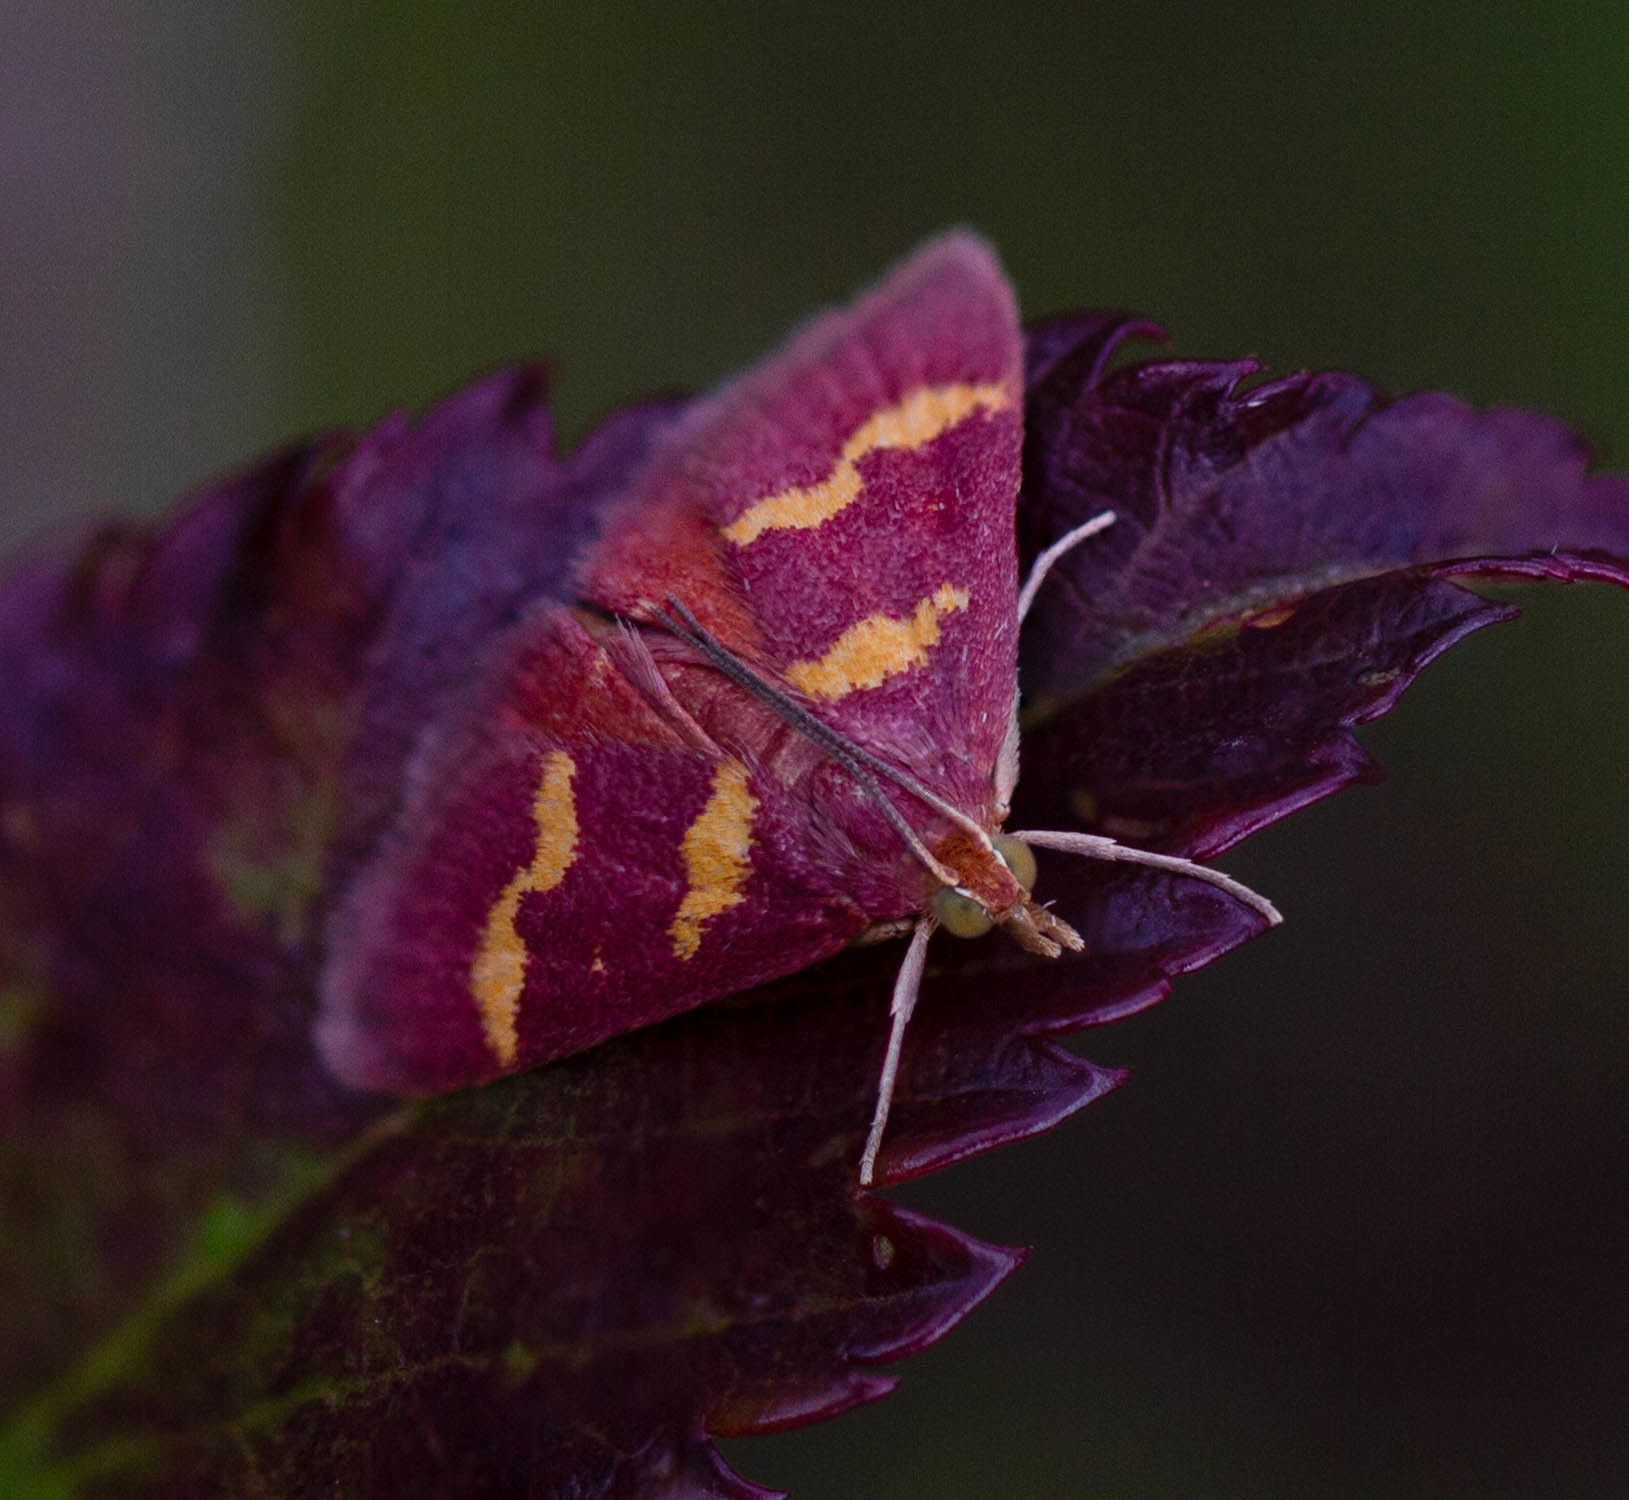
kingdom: Animalia
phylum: Arthropoda
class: Insecta
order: Lepidoptera
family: Crambidae
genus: Pyrausta
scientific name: Pyrausta tyralis
